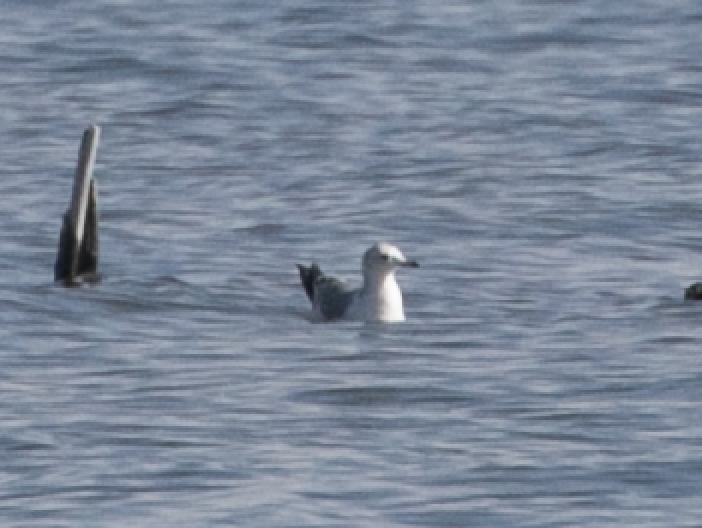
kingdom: Animalia
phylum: Chordata
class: Aves
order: Charadriiformes
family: Laridae
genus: Larus
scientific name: Larus canus
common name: Mew gull
